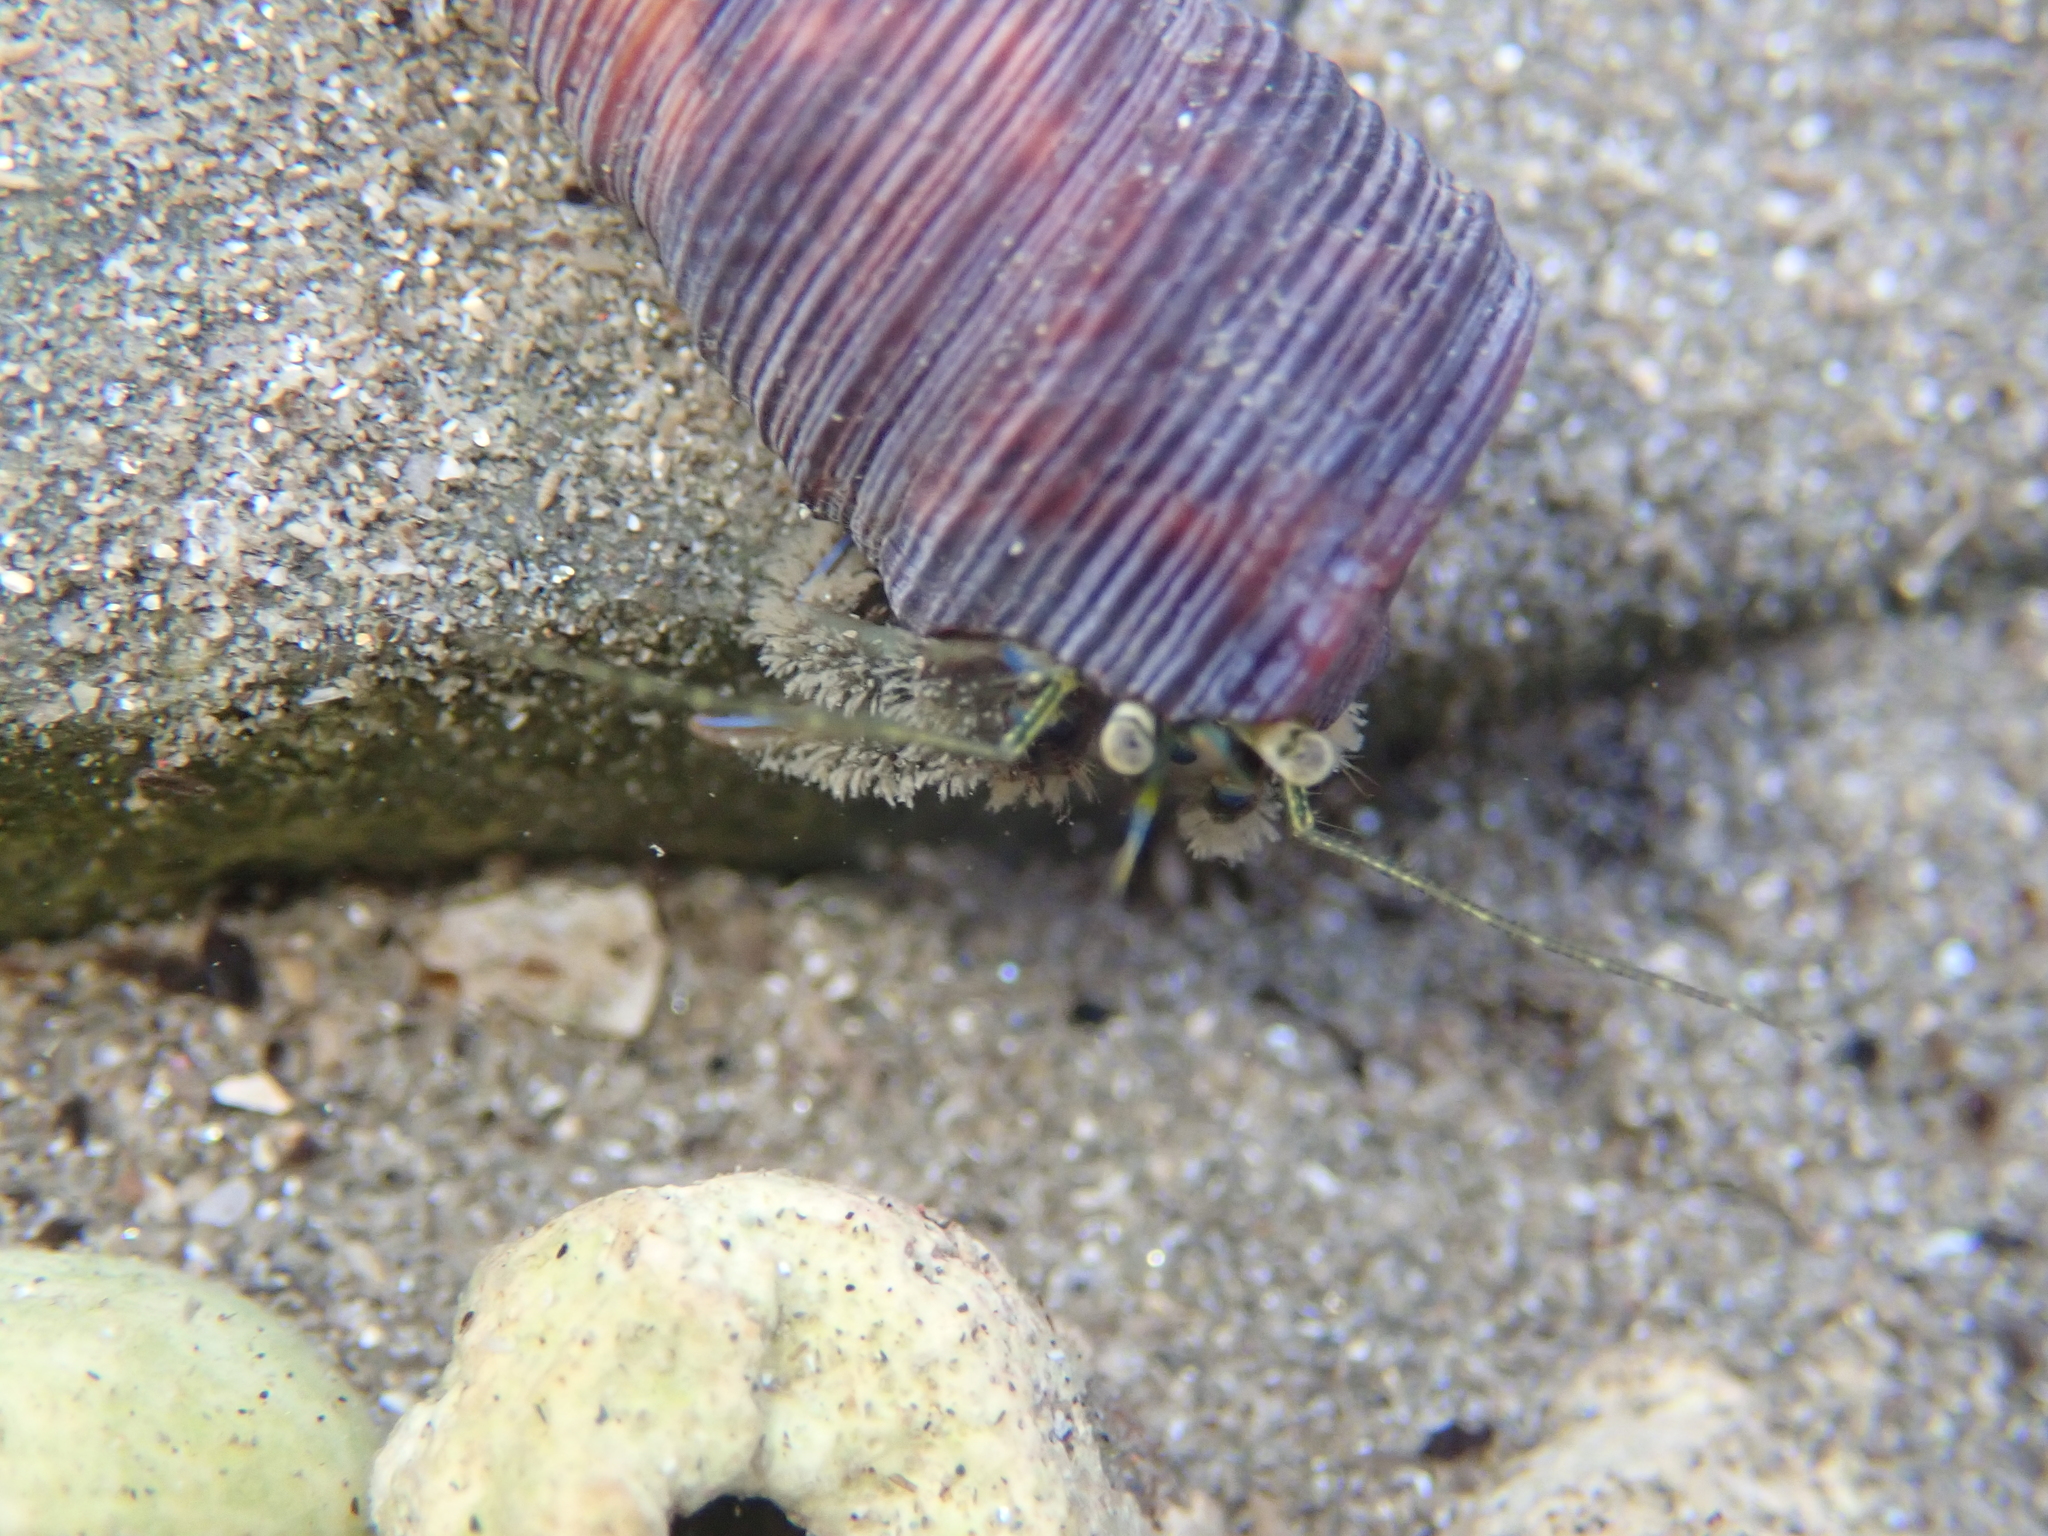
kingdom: Animalia
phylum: Arthropoda
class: Malacostraca
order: Decapoda
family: Paguridae
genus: Pagurus
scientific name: Pagurus novizealandiae
